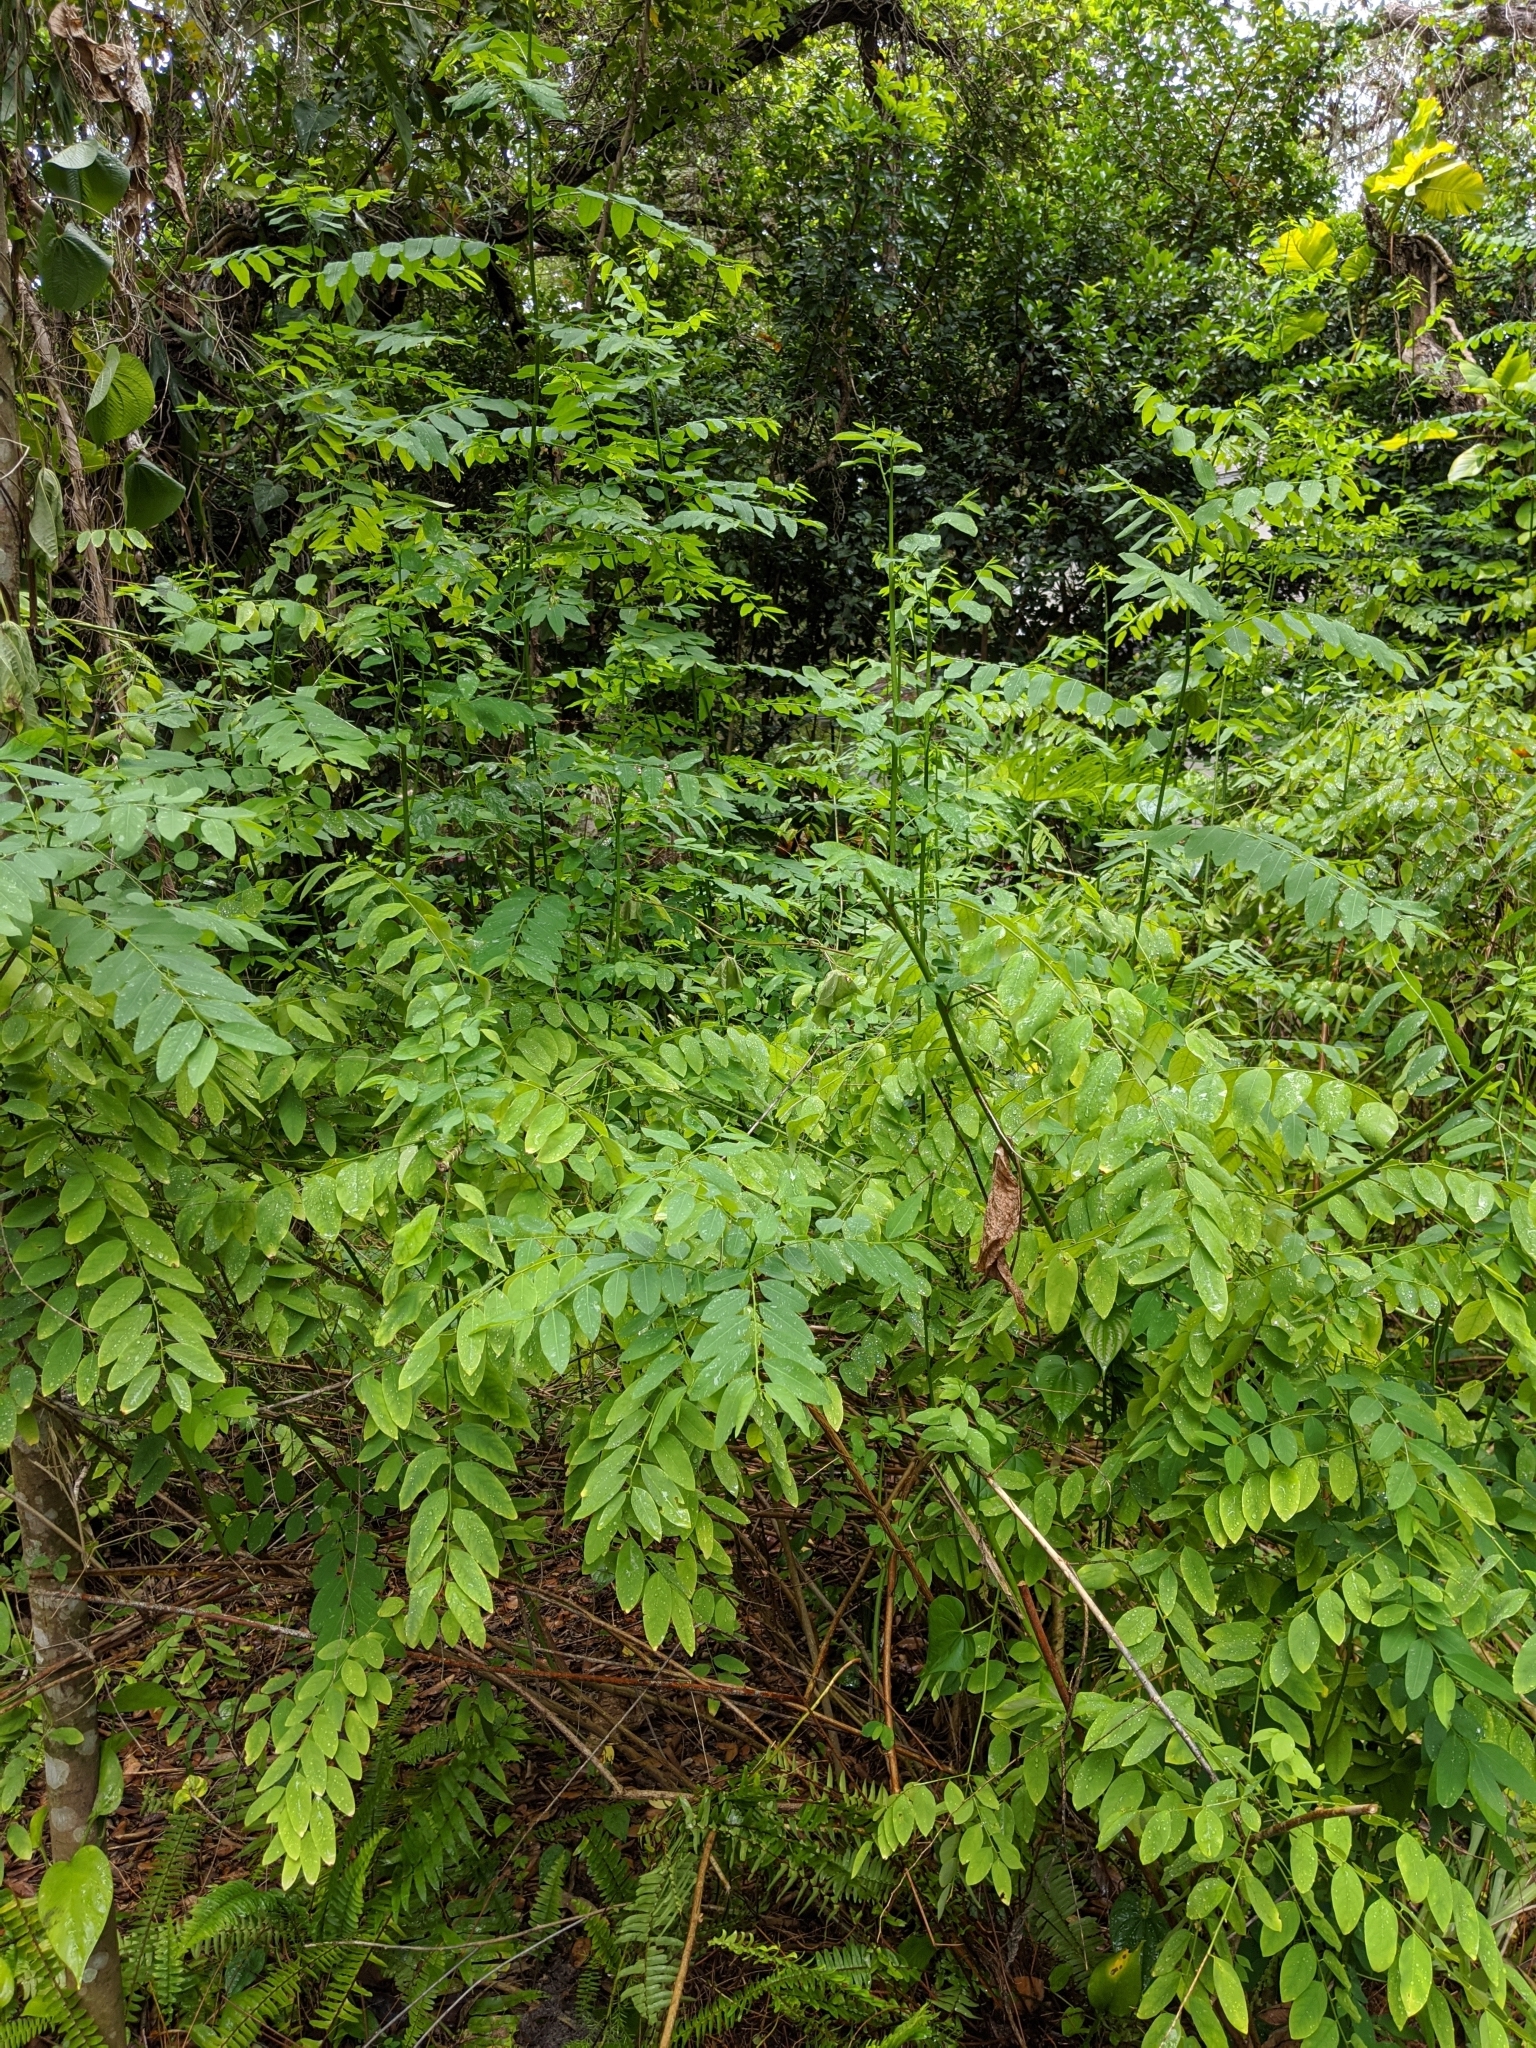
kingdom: Plantae
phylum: Tracheophyta
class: Magnoliopsida
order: Malpighiales
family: Phyllanthaceae
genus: Breynia
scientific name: Breynia androgyna
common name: Star gooseberry
